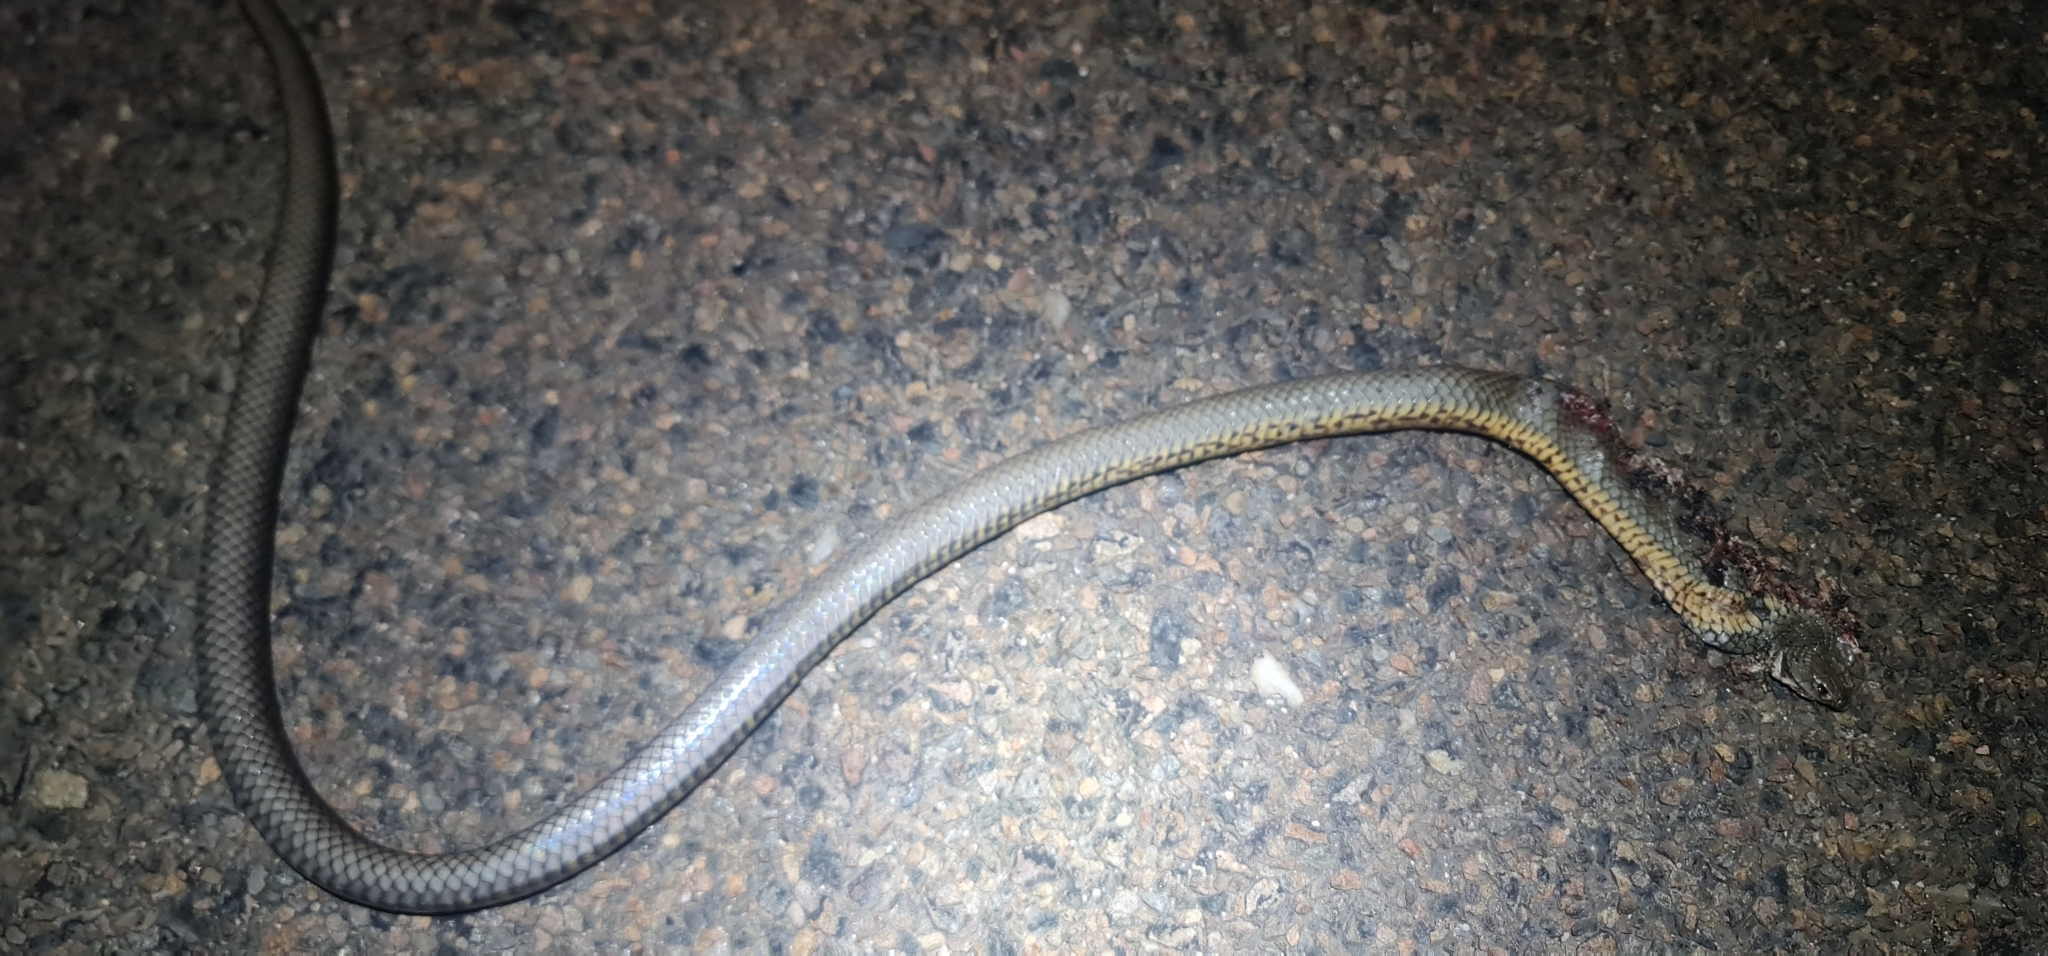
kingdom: Animalia
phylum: Chordata
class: Squamata
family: Elapidae
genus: Pseudonaja
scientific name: Pseudonaja textilis
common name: Eastern brown snake
